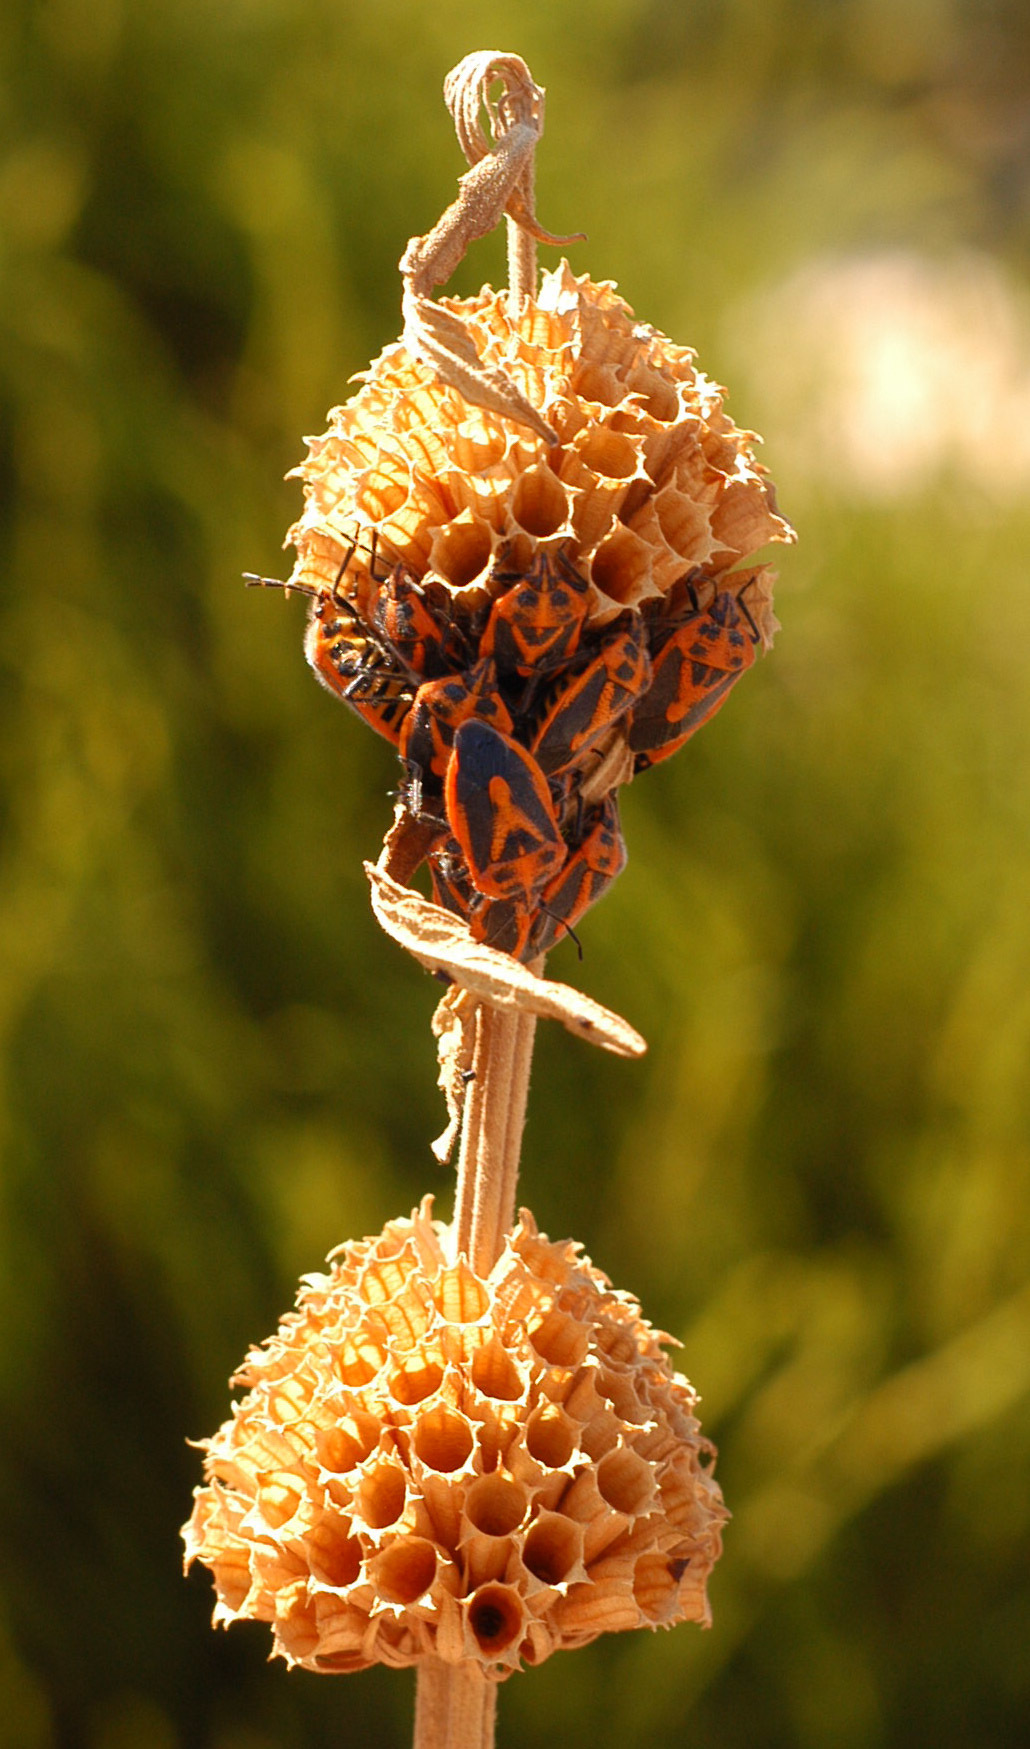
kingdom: Animalia
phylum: Arthropoda
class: Insecta
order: Hemiptera
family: Pentatomidae
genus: Agonoscelis
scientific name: Agonoscelis rutila
